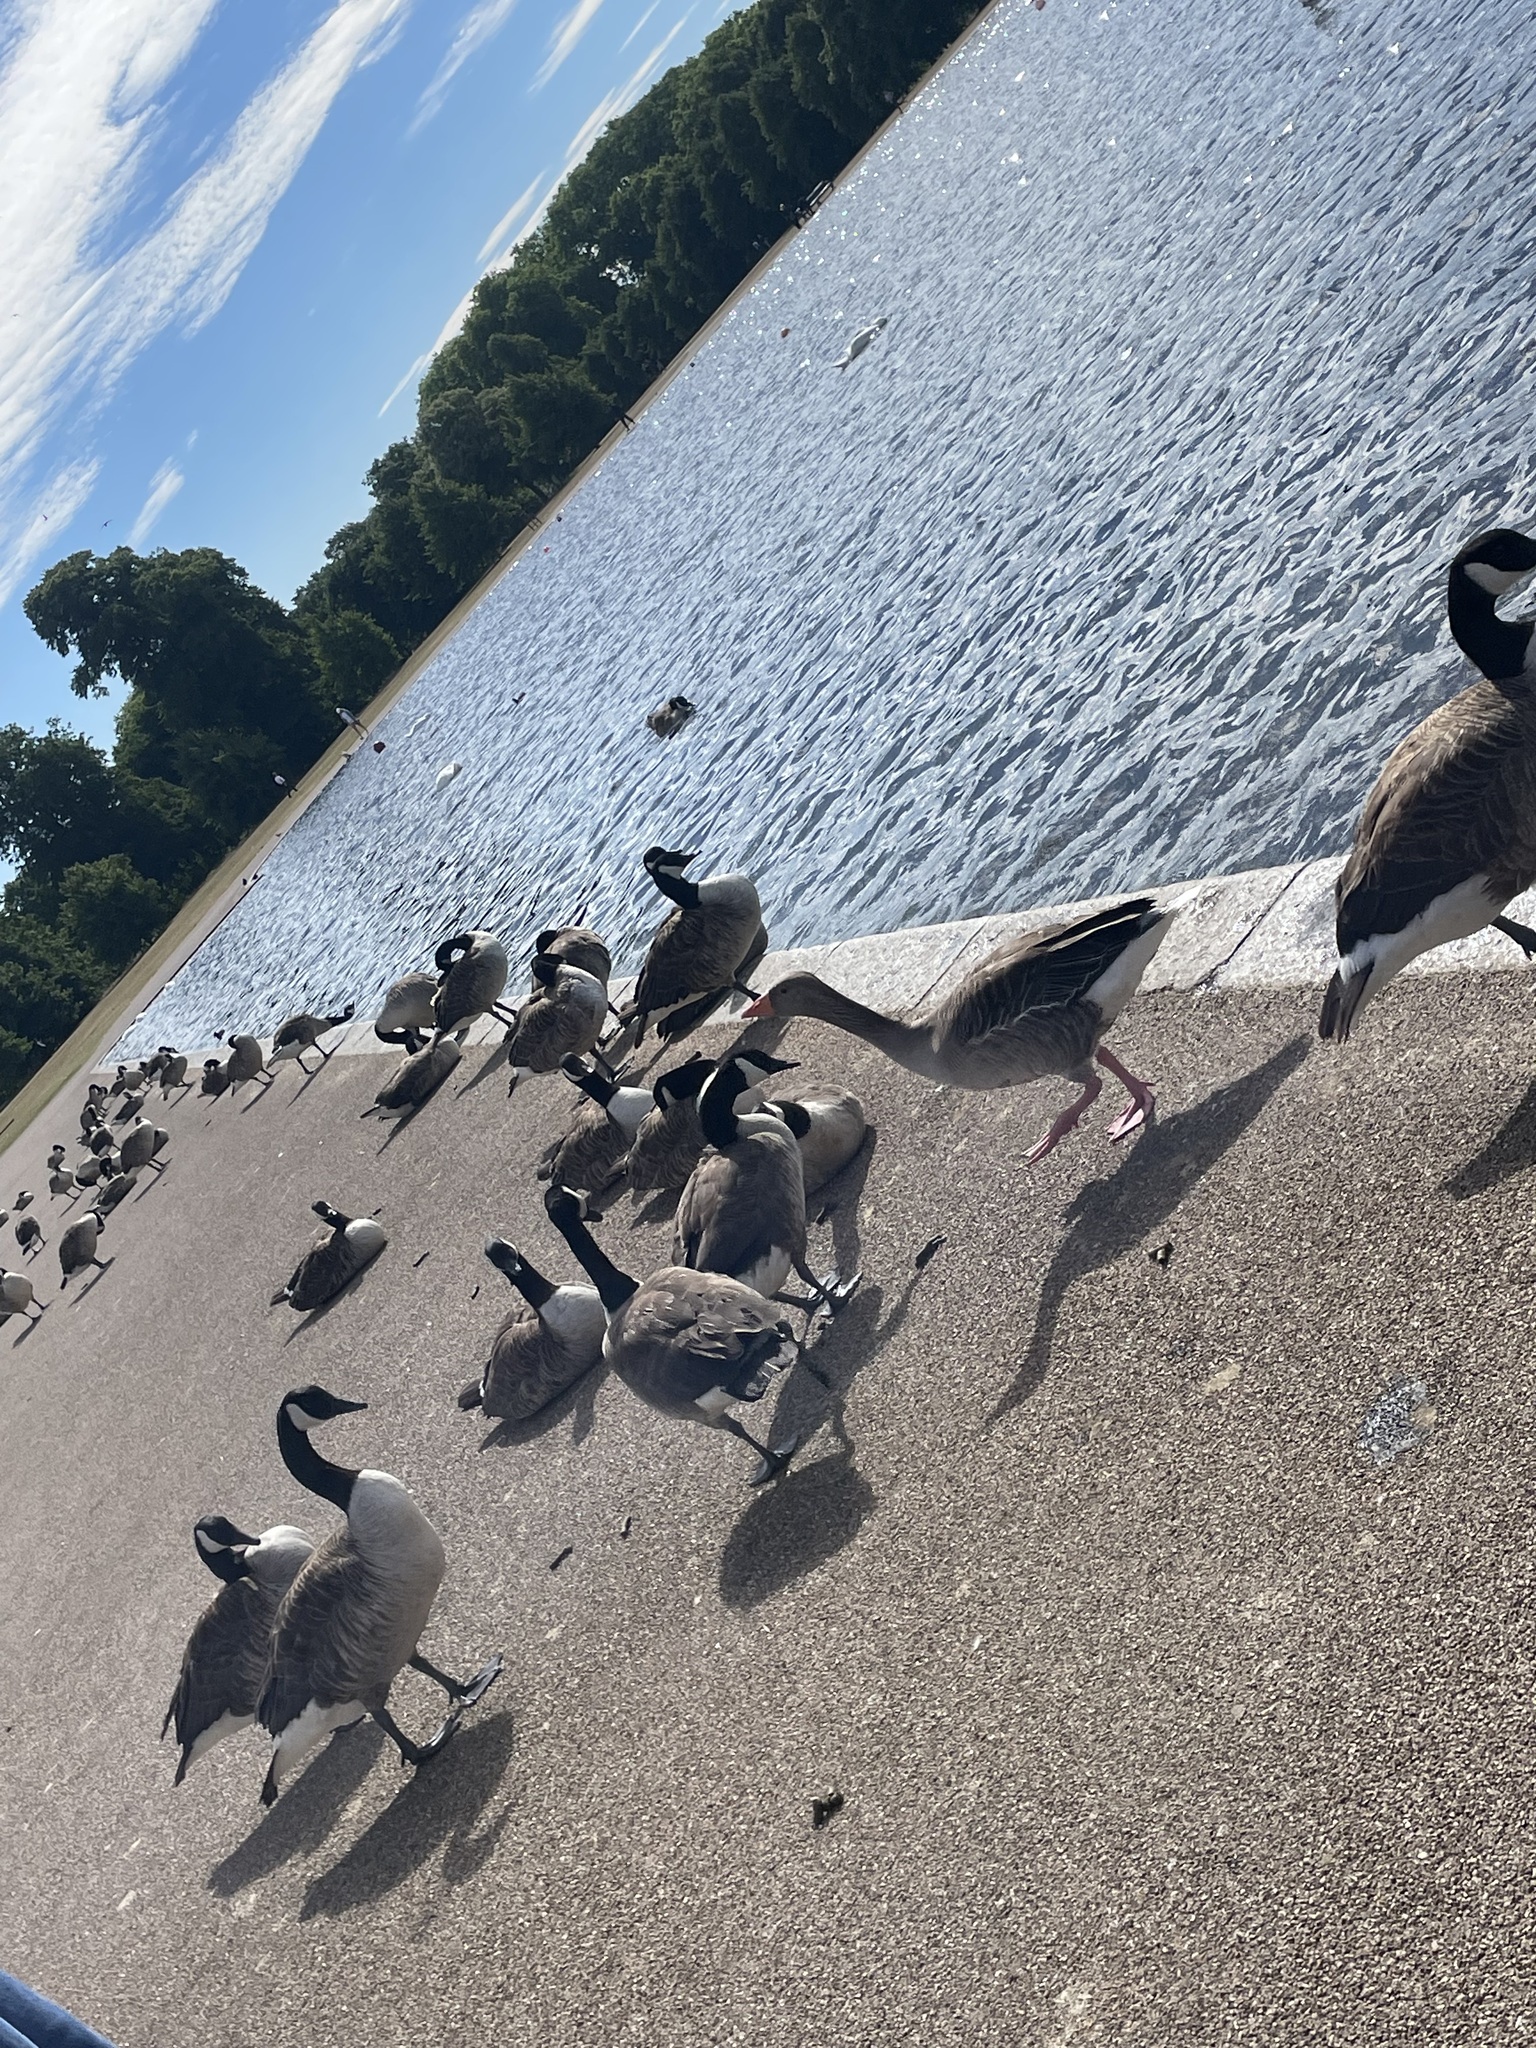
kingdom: Animalia
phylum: Chordata
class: Aves
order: Anseriformes
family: Anatidae
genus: Branta
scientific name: Branta canadensis
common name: Canada goose
